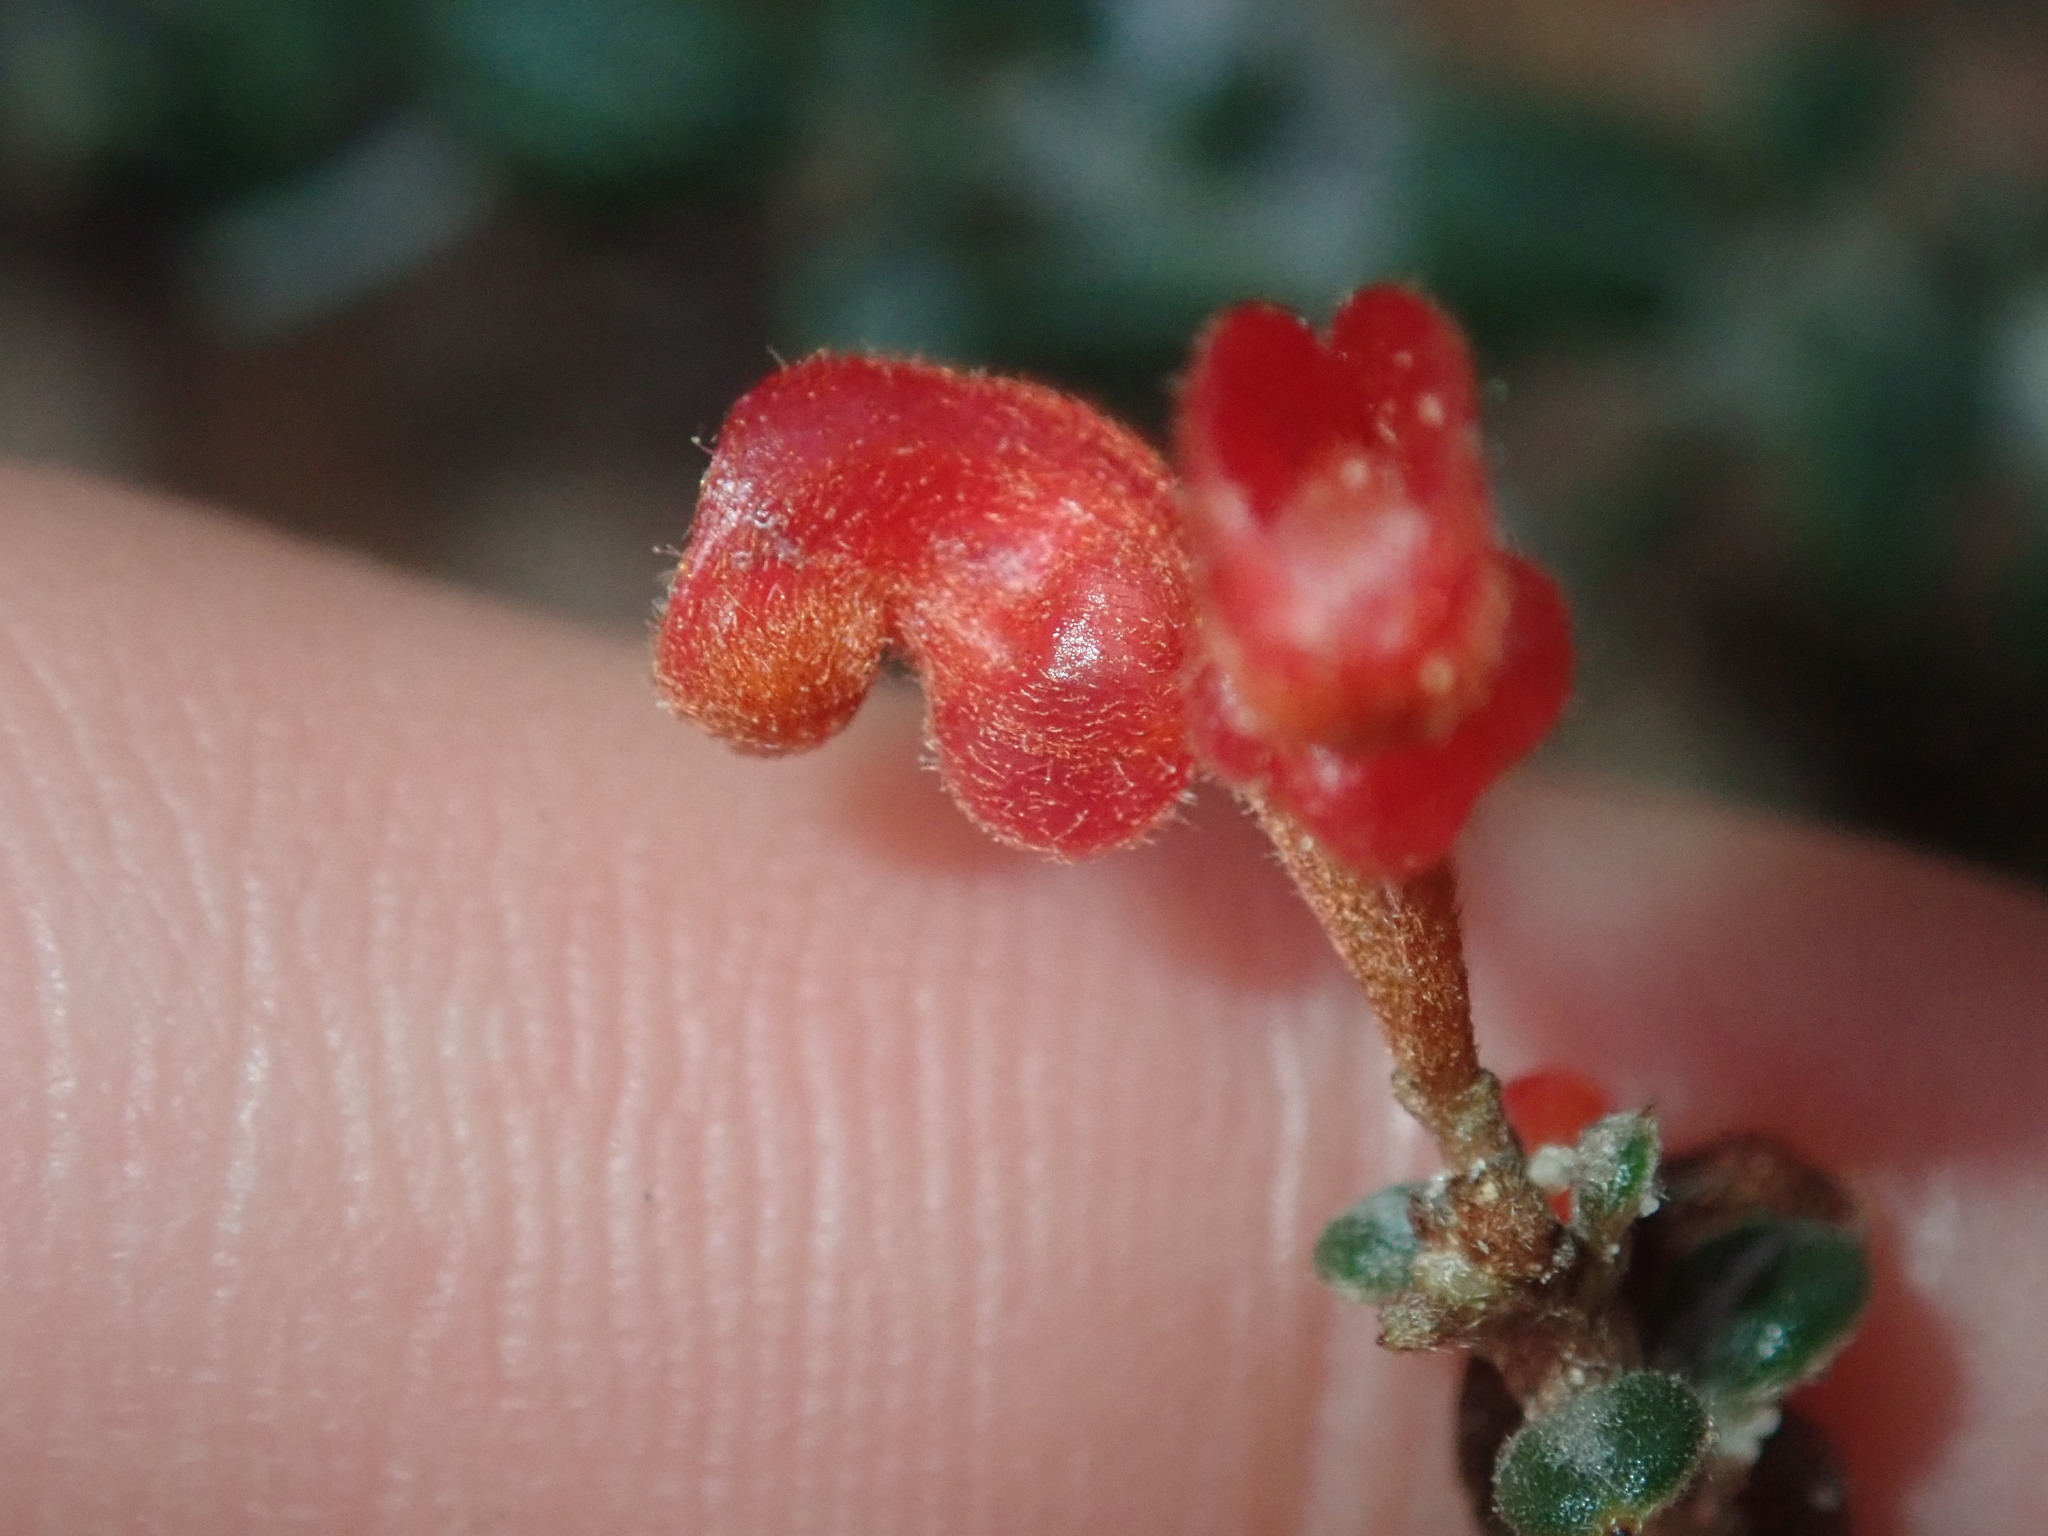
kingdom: Plantae
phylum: Tracheophyta
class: Magnoliopsida
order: Proteales
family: Proteaceae
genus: Grevillea
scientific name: Grevillea crassifolia
